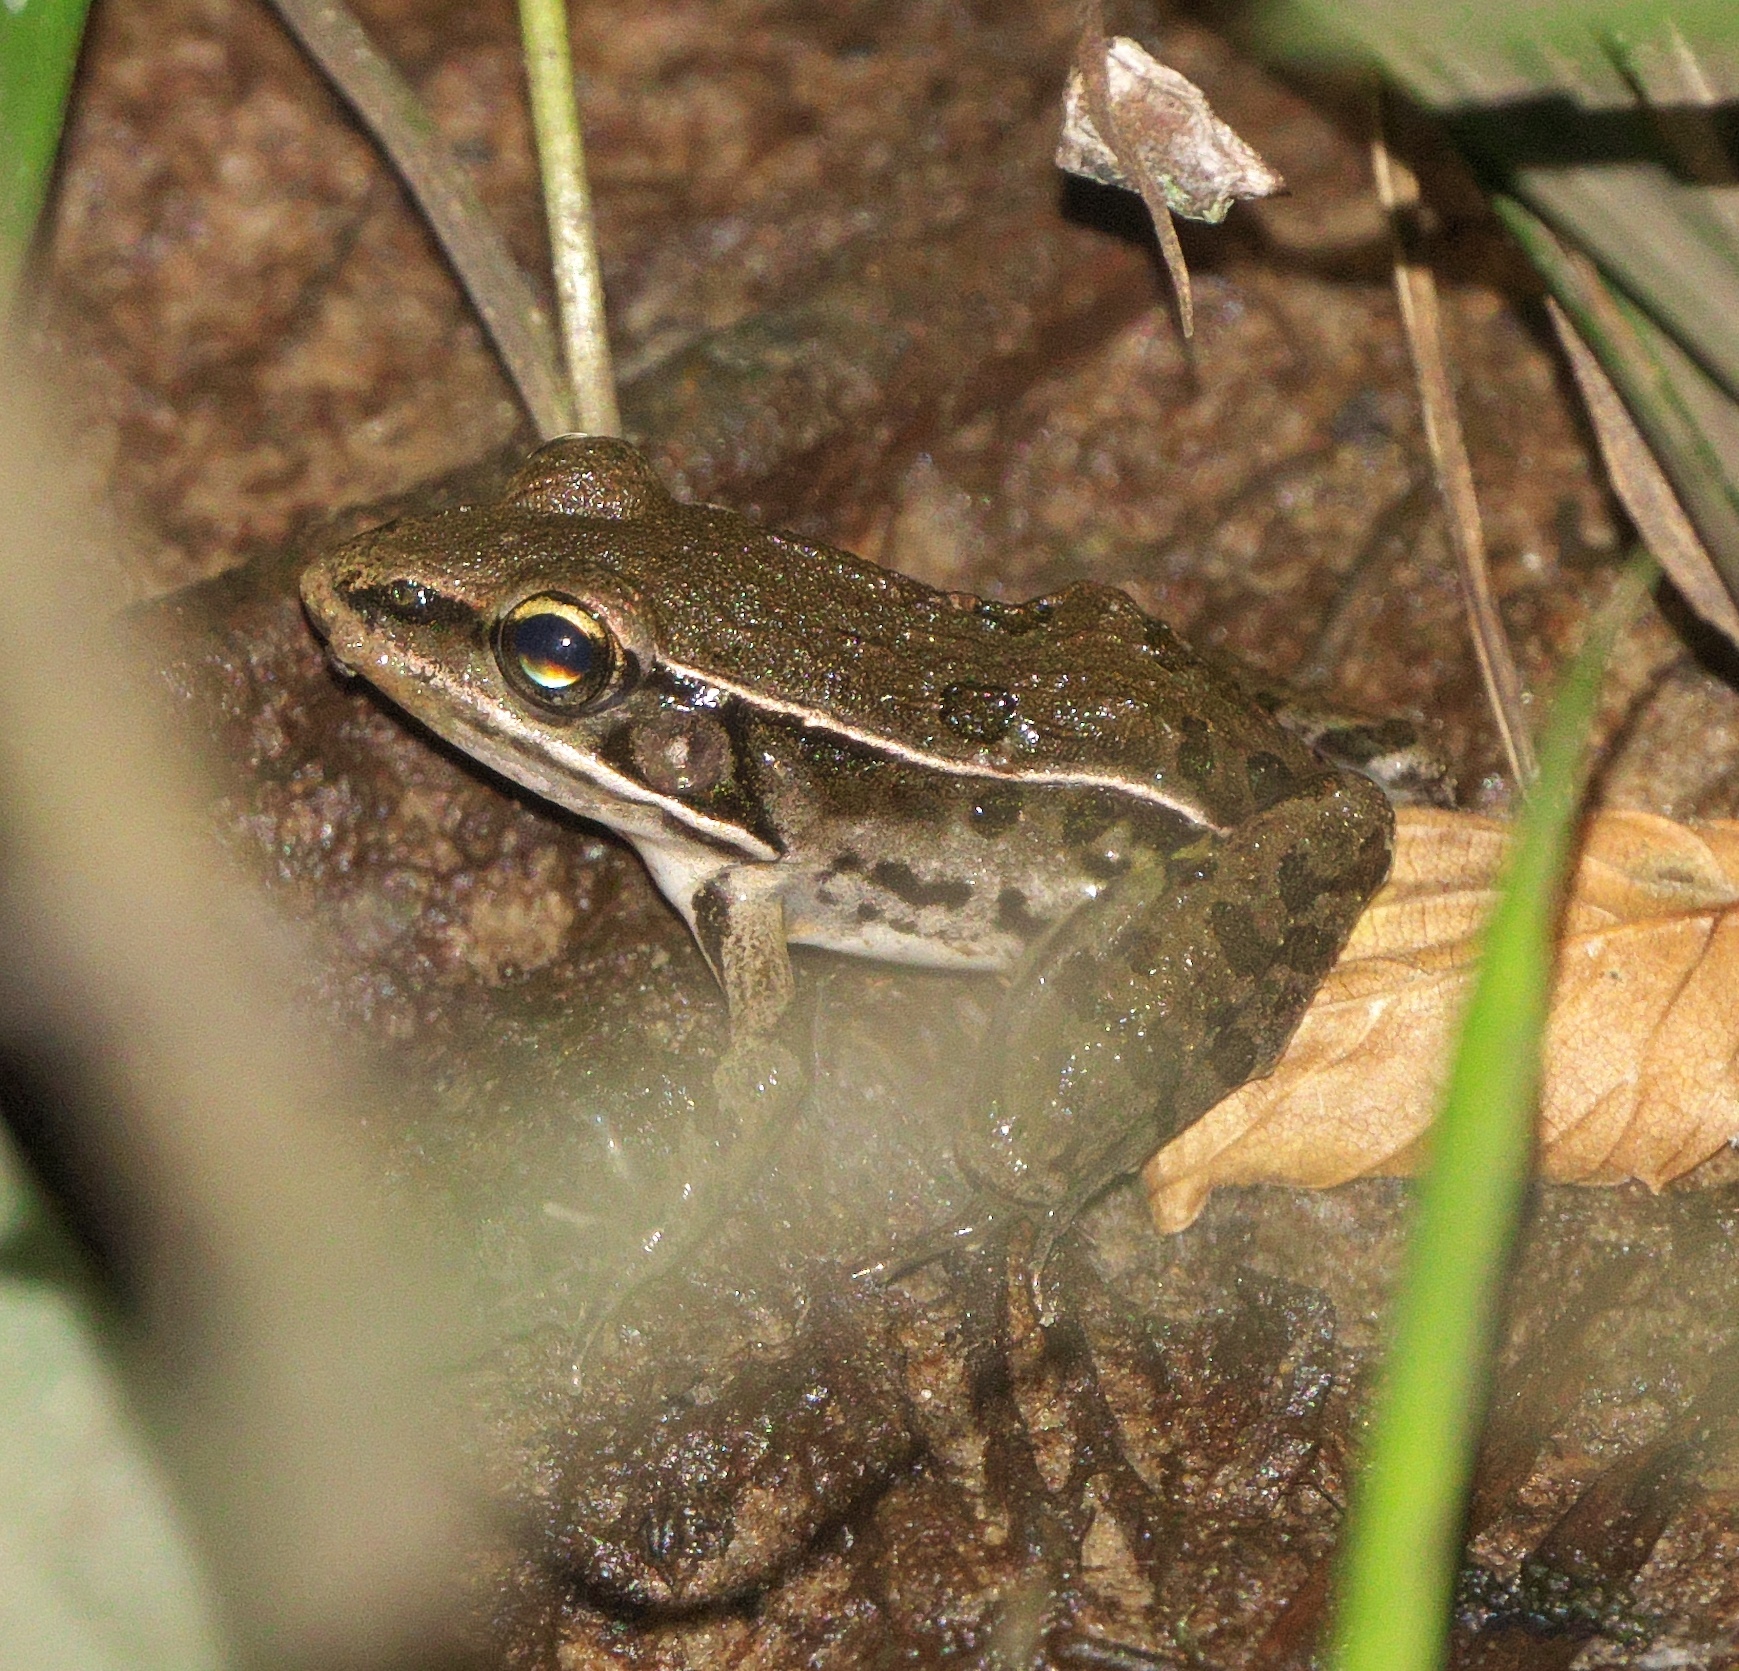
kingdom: Animalia
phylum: Chordata
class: Amphibia
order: Anura
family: Ranidae
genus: Lithobates
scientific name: Lithobates sphenocephalus
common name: Southern leopard frog
